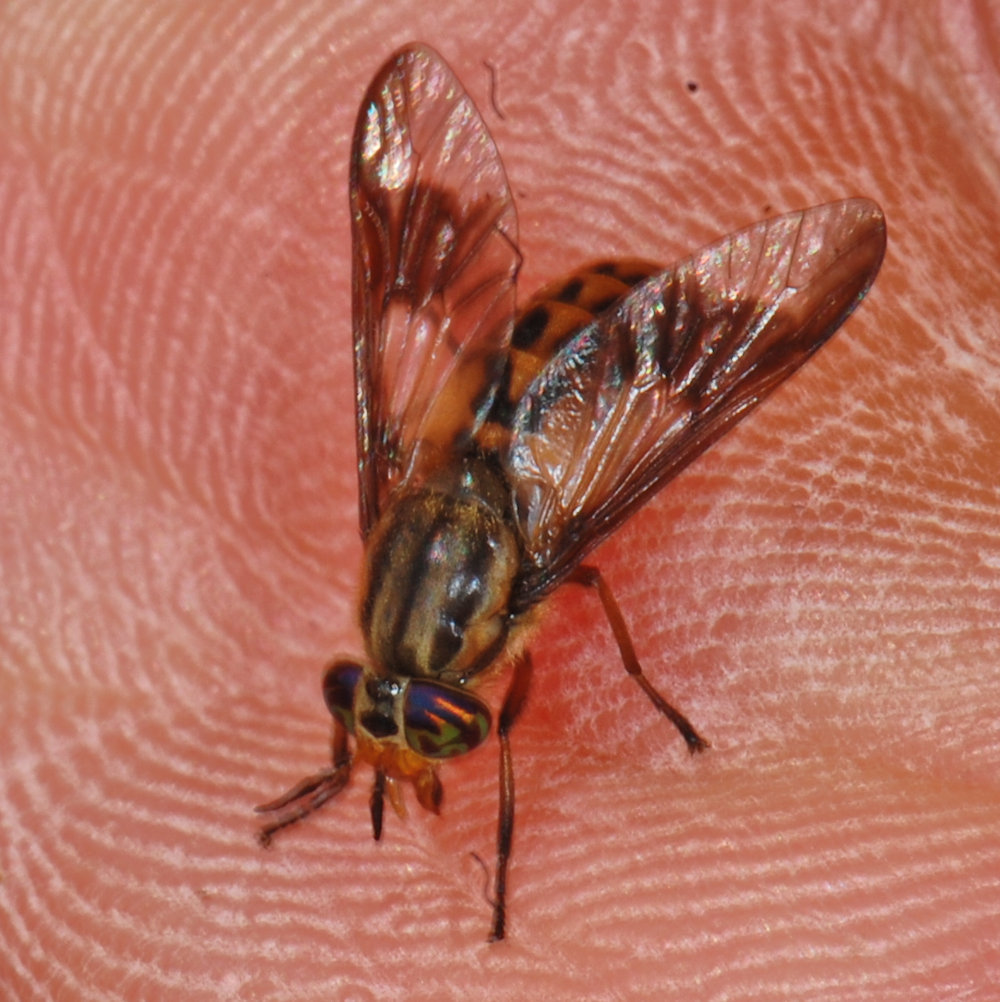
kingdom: Animalia
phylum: Arthropoda
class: Insecta
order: Diptera
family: Tabanidae
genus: Chrysops
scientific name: Chrysops montanus
